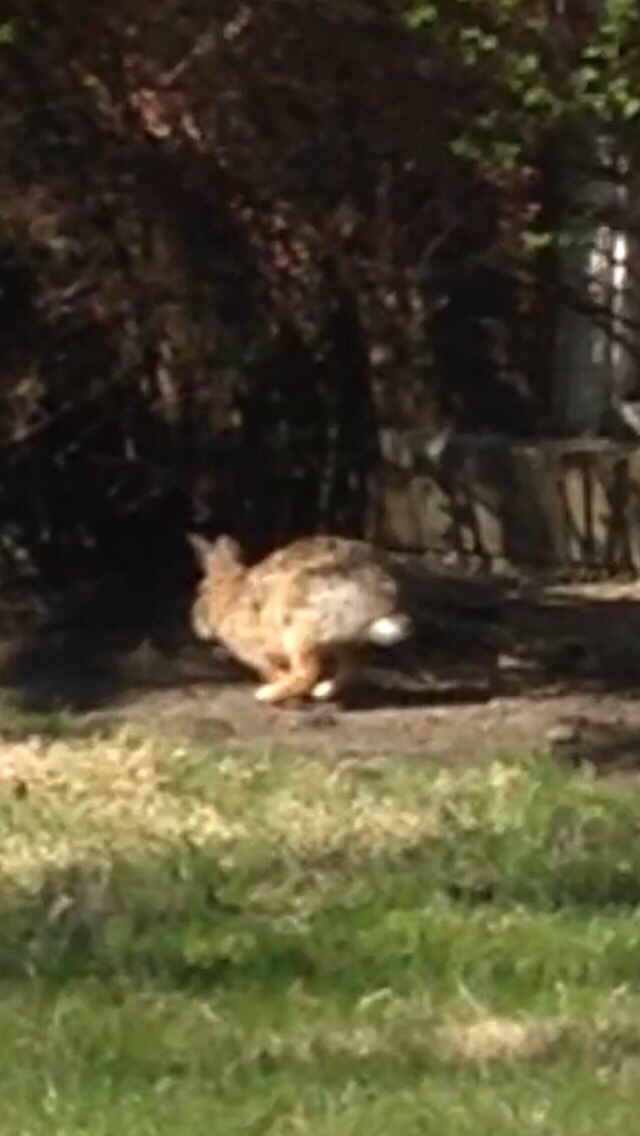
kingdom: Animalia
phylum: Chordata
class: Mammalia
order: Lagomorpha
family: Leporidae
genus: Sylvilagus
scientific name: Sylvilagus floridanus
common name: Eastern cottontail
